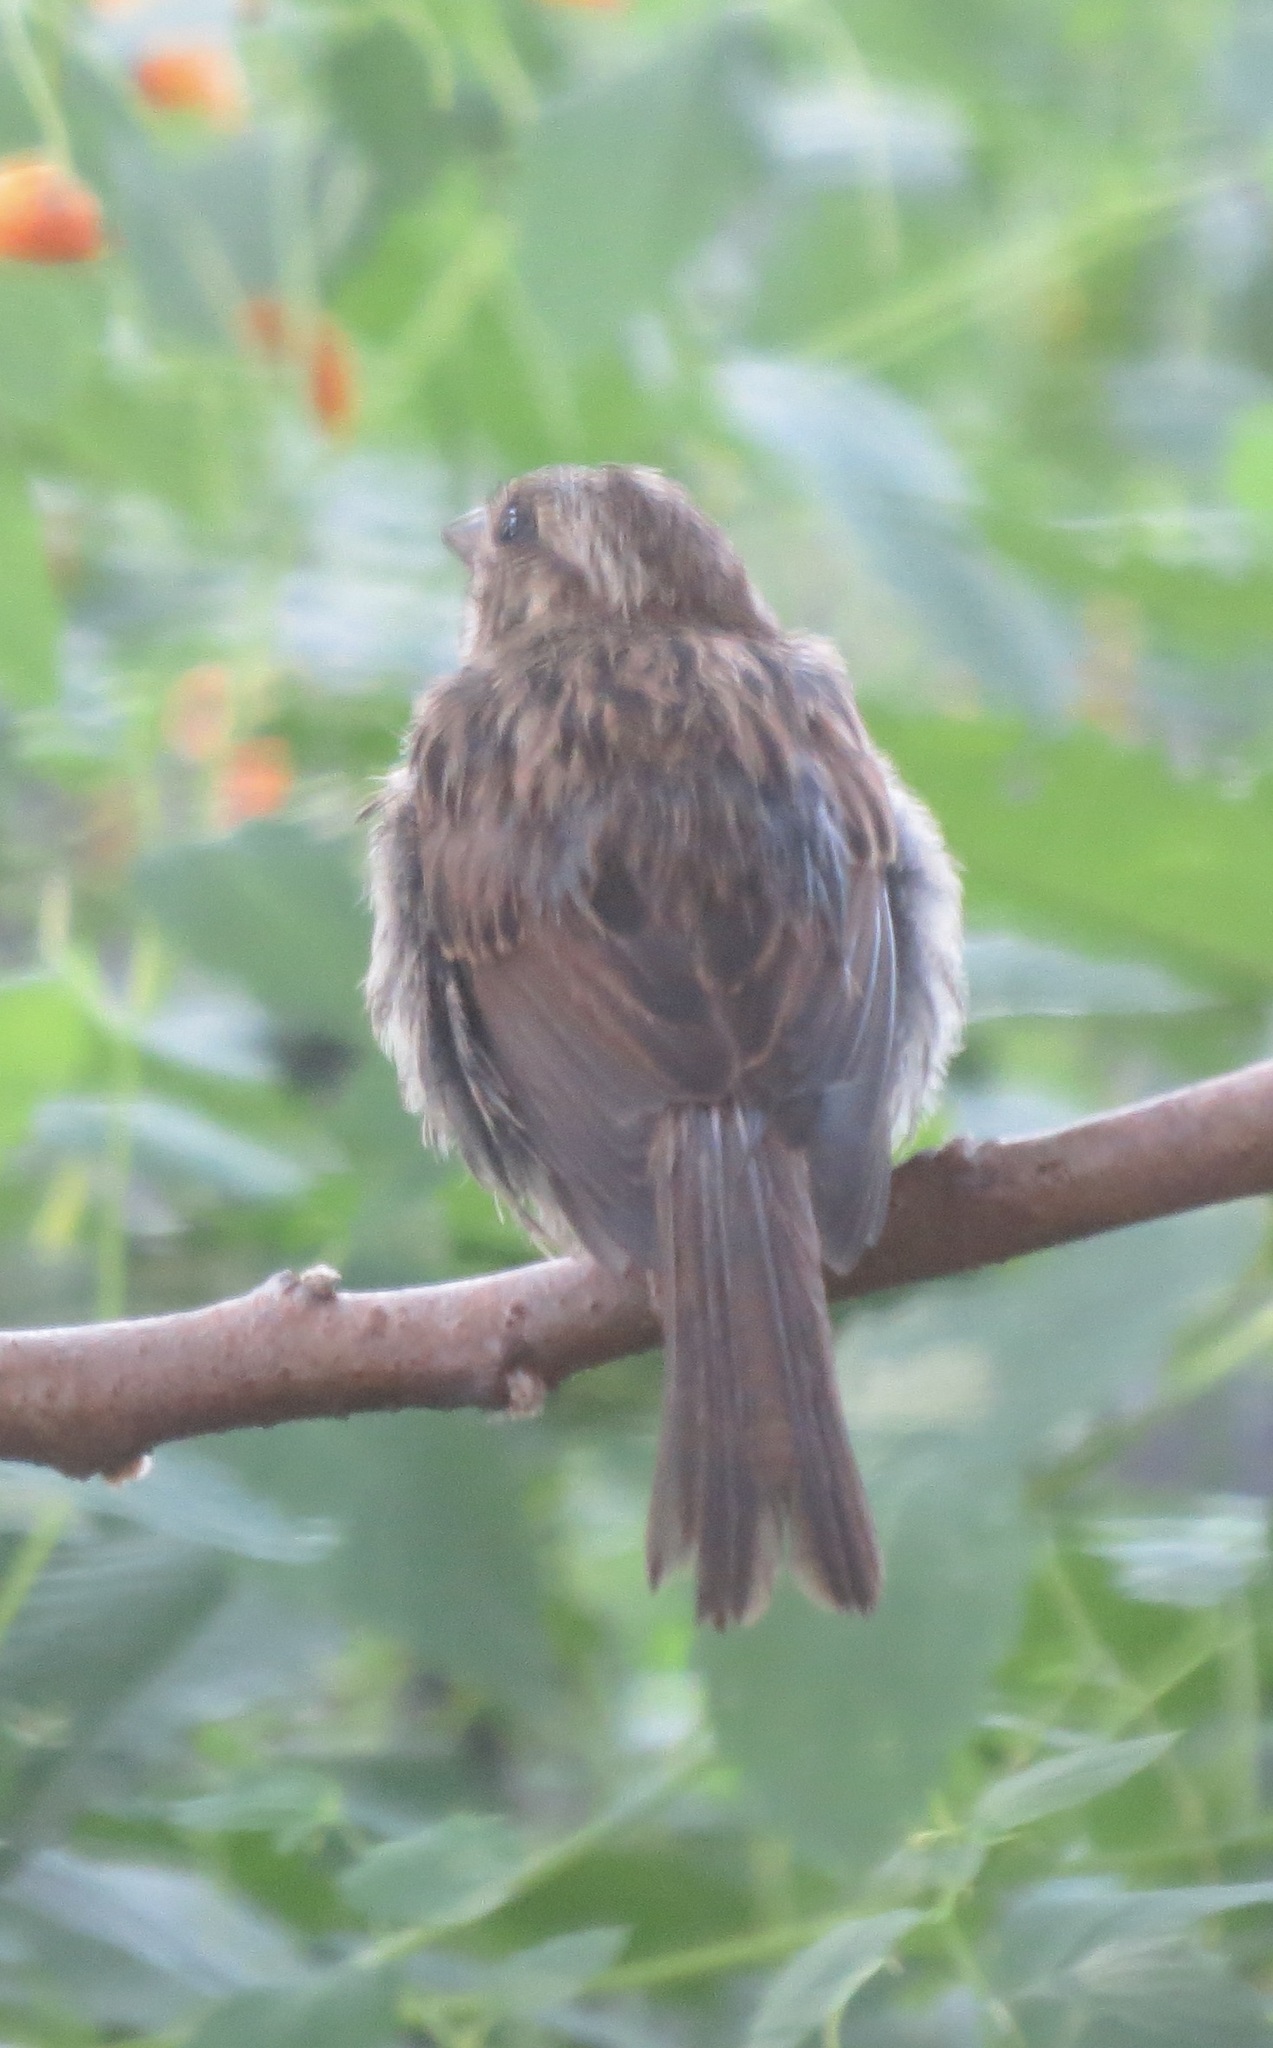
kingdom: Animalia
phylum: Chordata
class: Aves
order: Passeriformes
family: Passerellidae
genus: Melospiza
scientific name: Melospiza melodia
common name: Song sparrow
